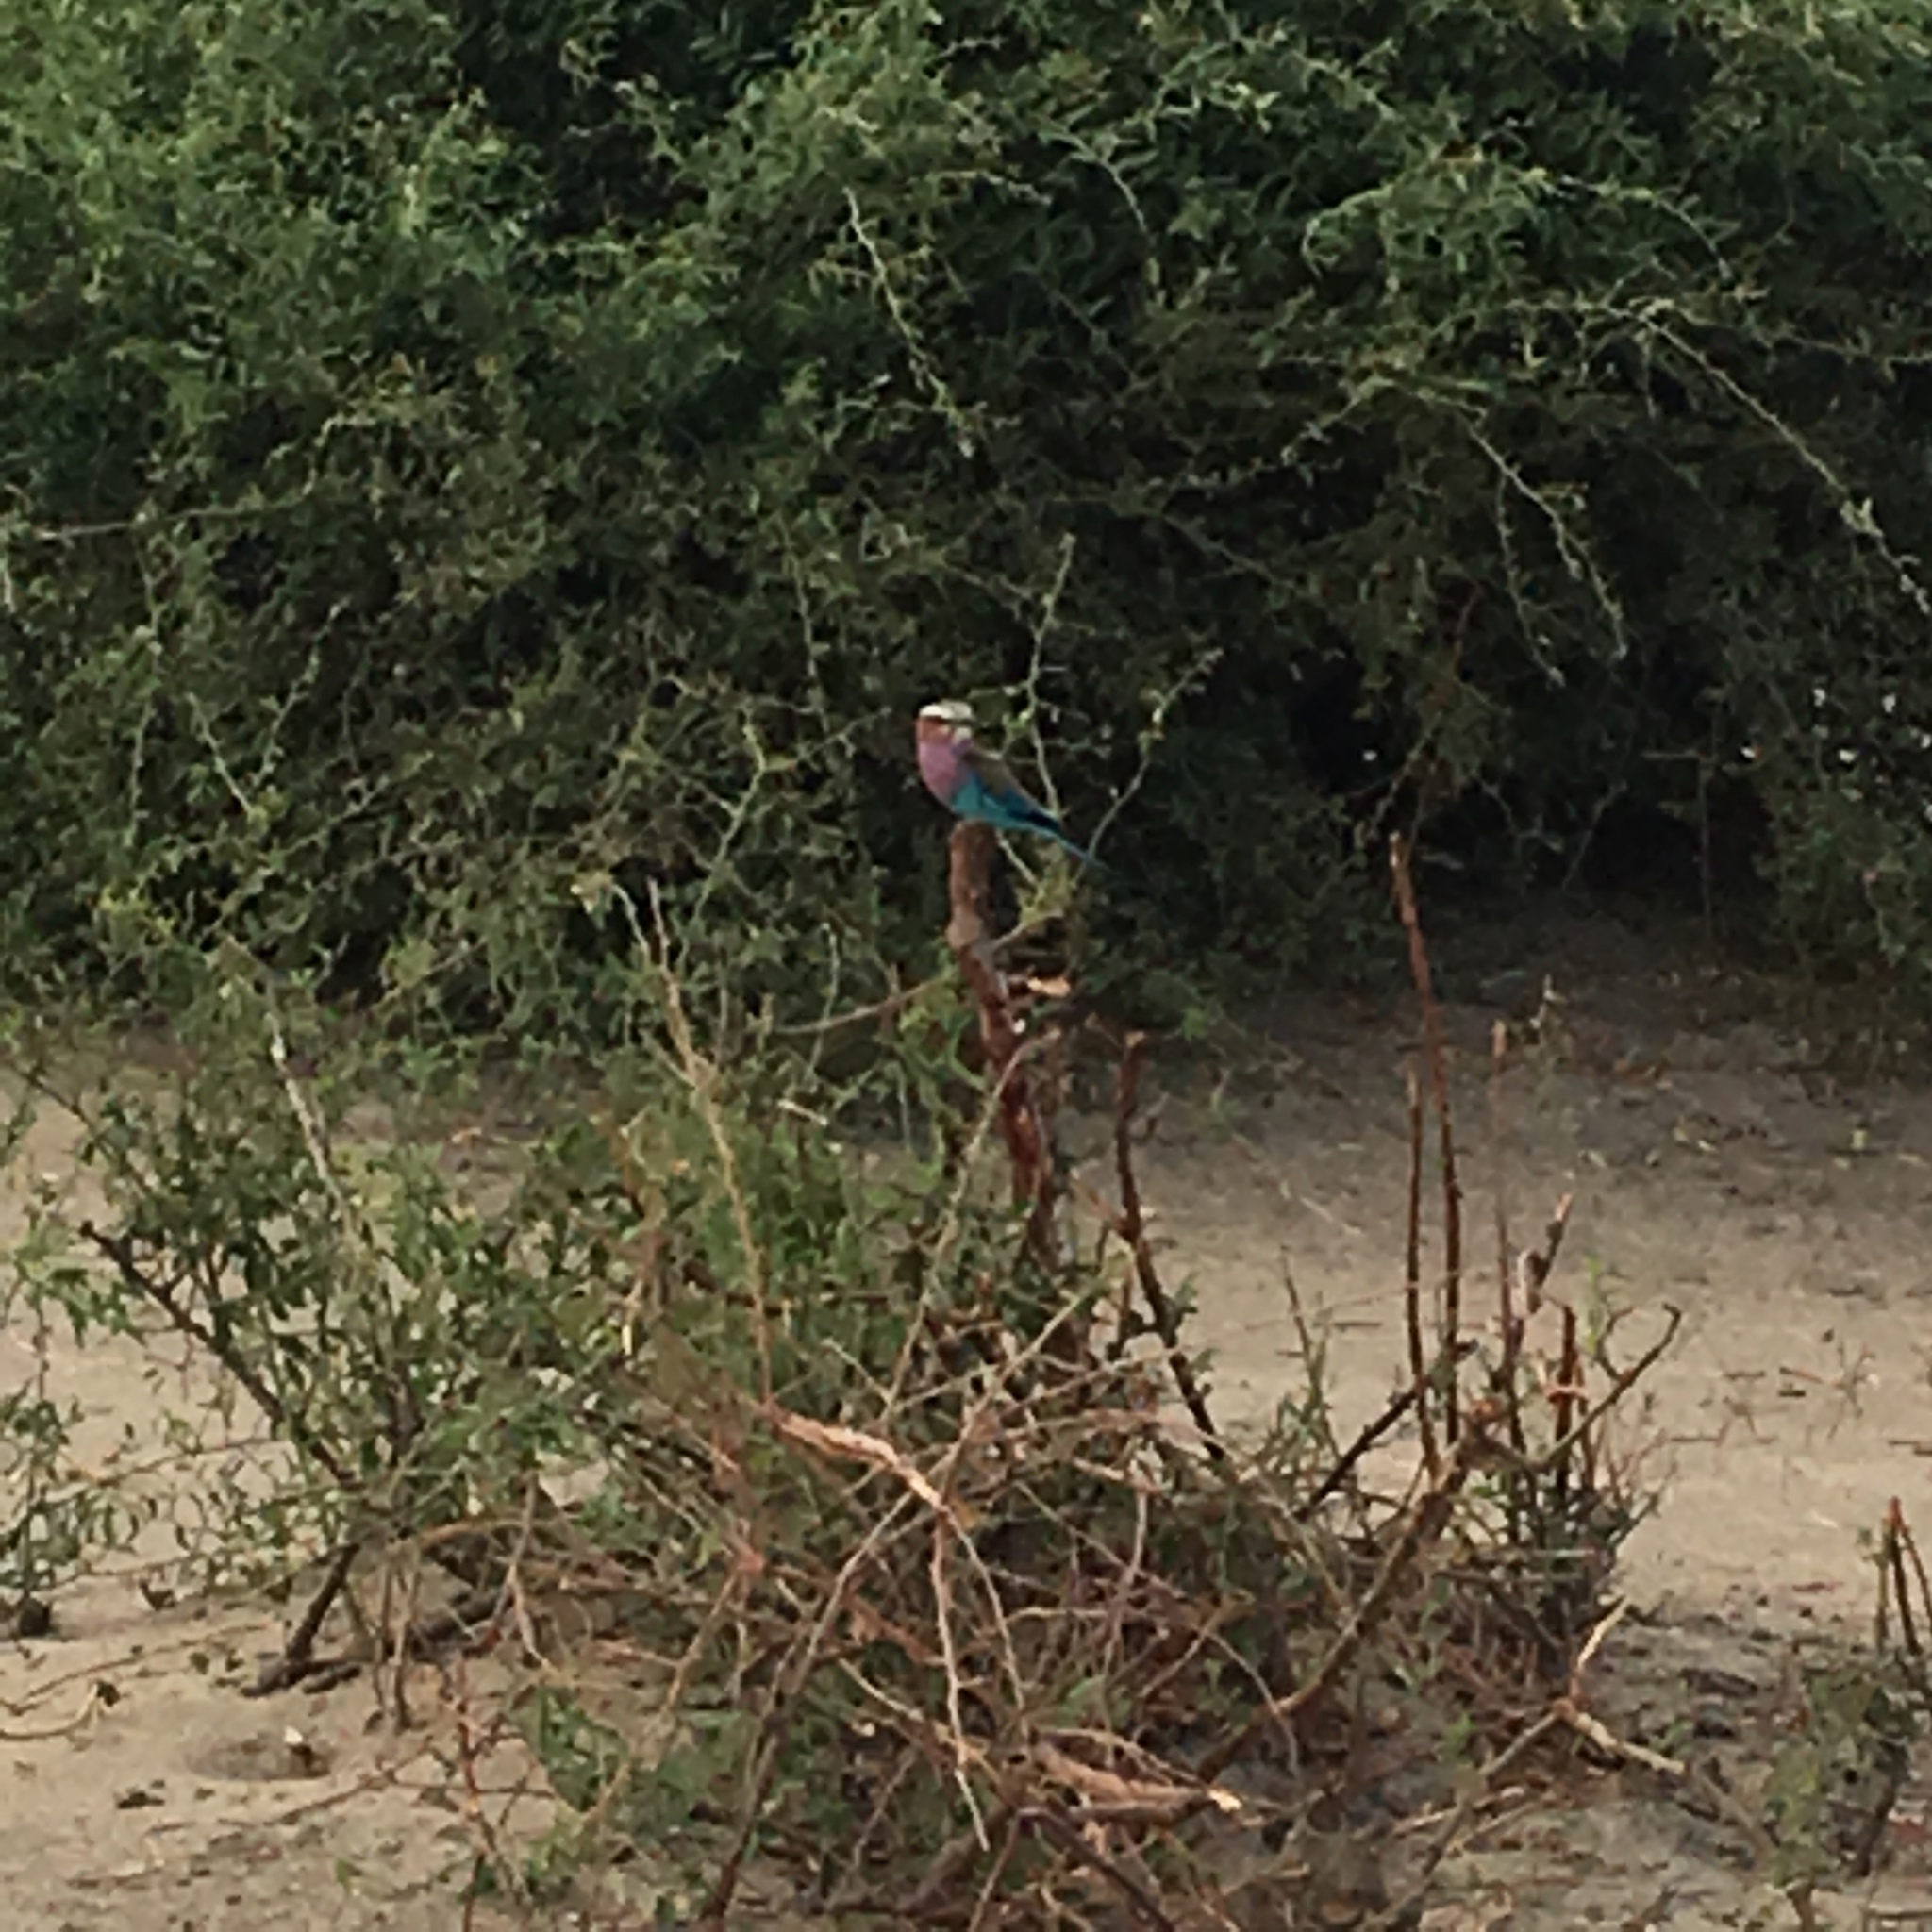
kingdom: Animalia
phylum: Chordata
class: Aves
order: Coraciiformes
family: Coraciidae
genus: Coracias
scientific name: Coracias caudatus
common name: Lilac-breasted roller
